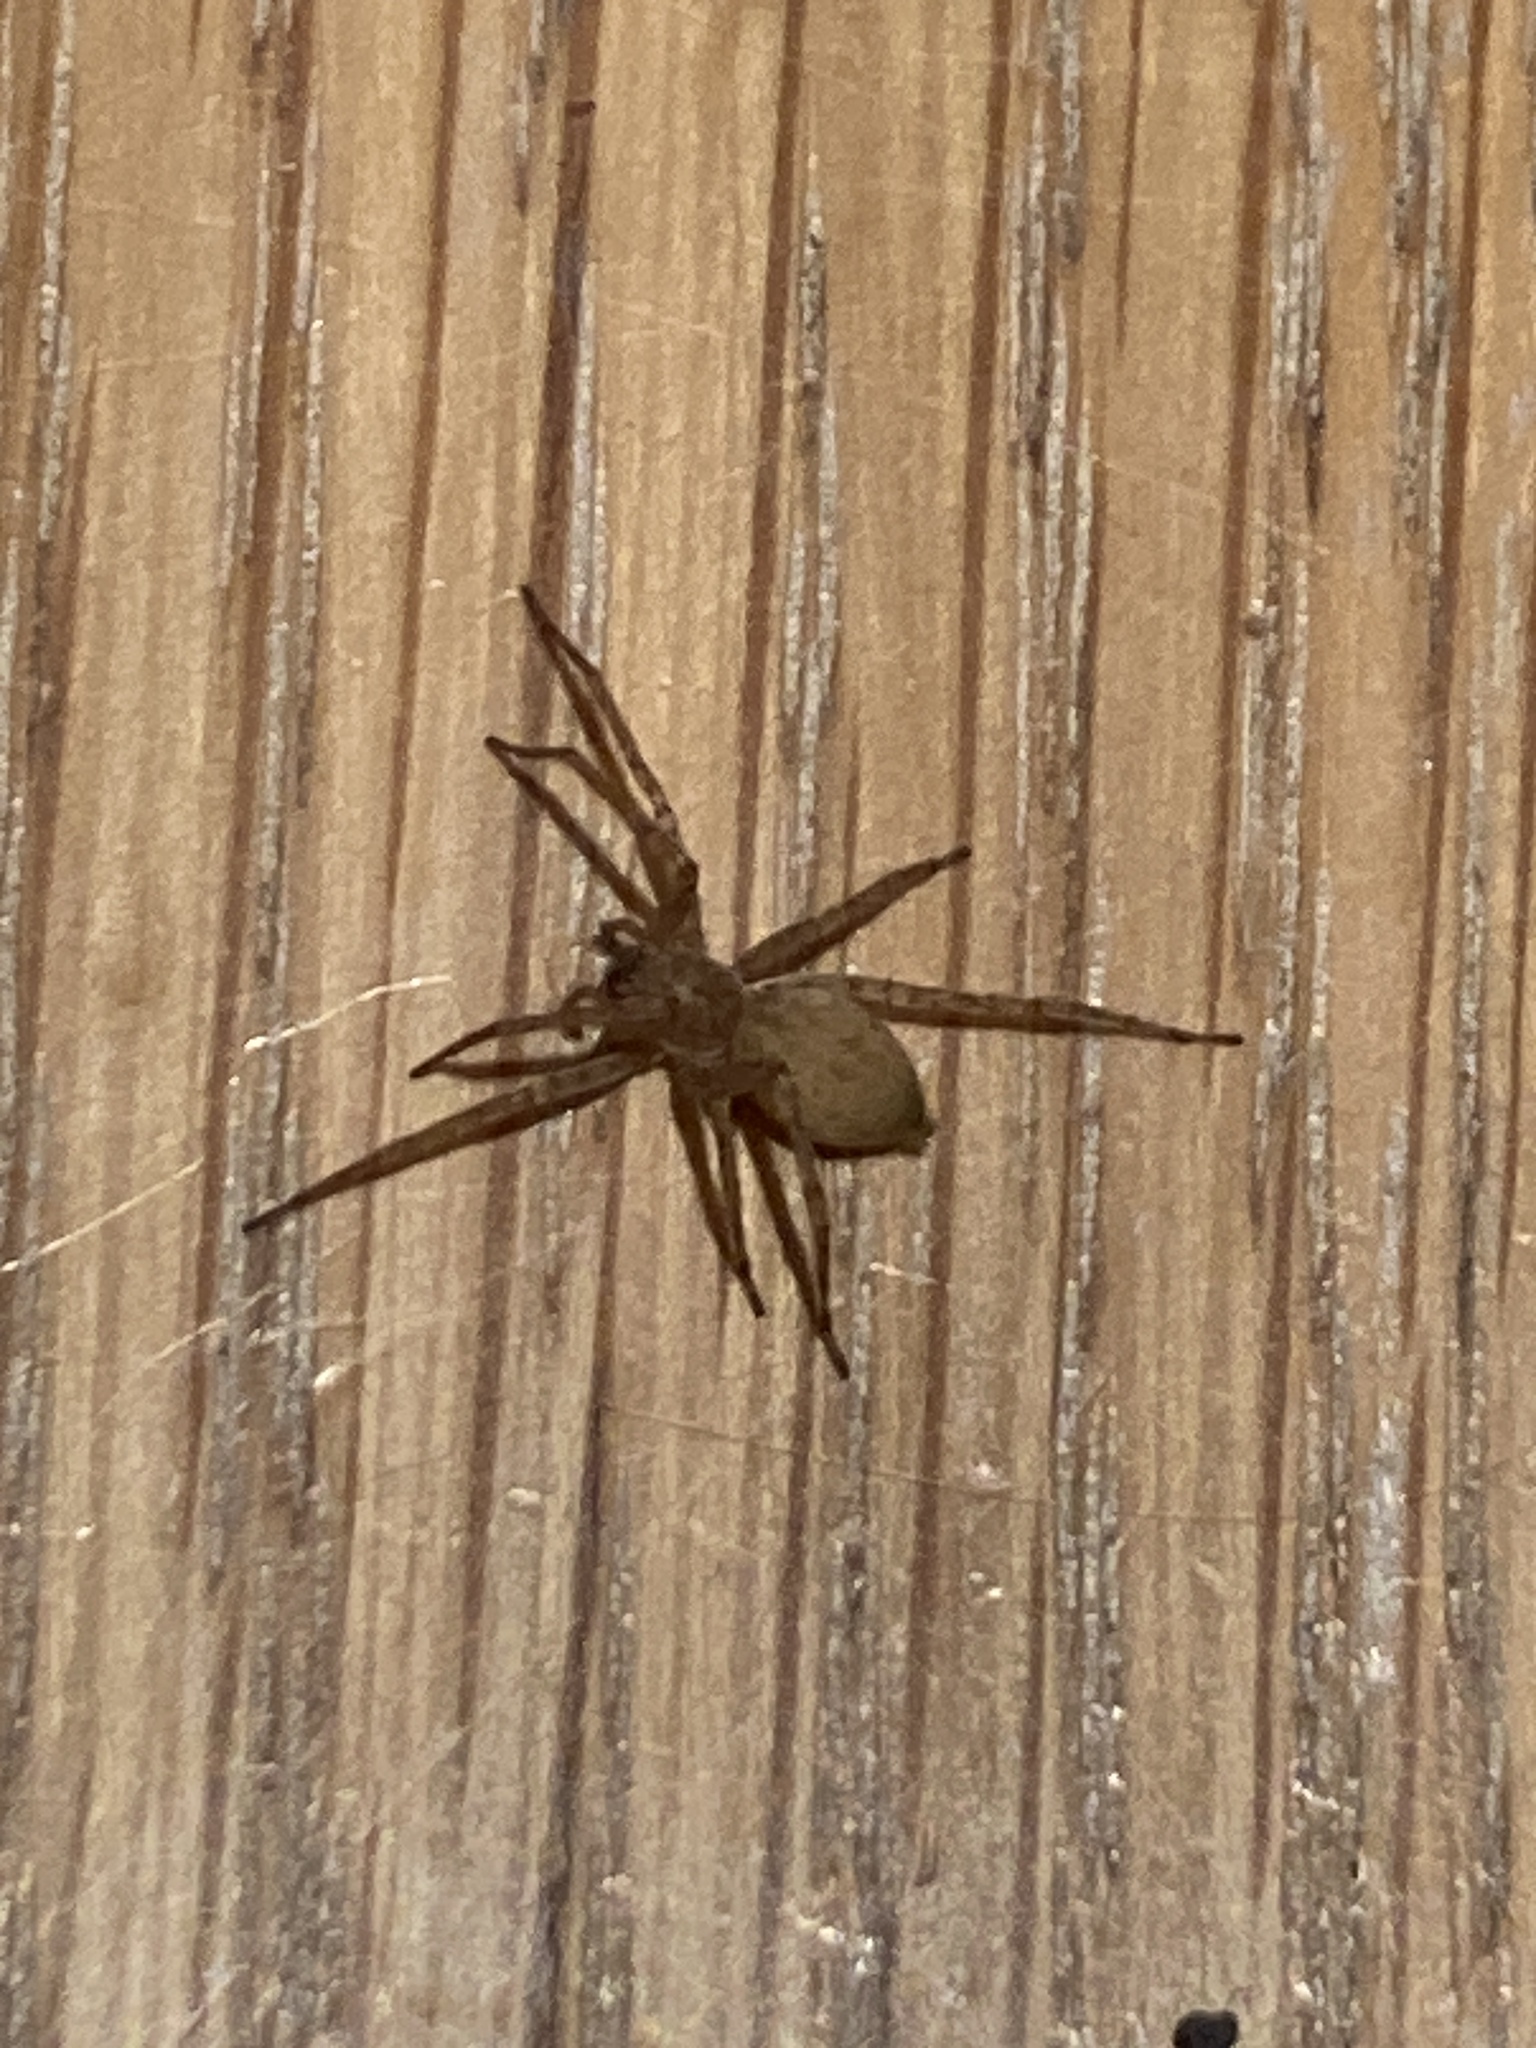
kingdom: Animalia
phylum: Arthropoda
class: Arachnida
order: Araneae
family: Anyphaenidae
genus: Anyphaena
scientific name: Anyphaena numida
